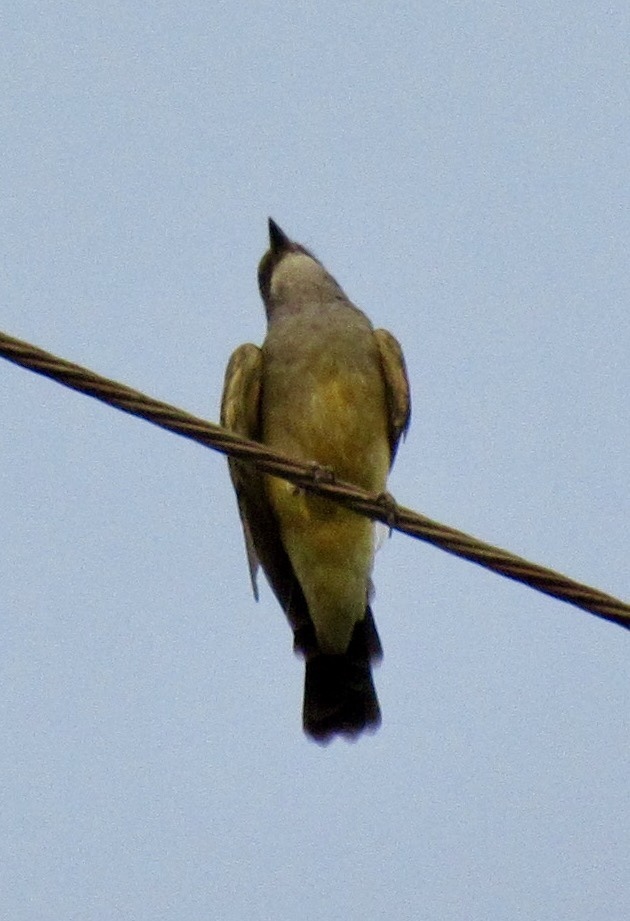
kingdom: Animalia
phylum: Chordata
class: Aves
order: Passeriformes
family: Tyrannidae
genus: Tyrannus
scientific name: Tyrannus vociferans
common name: Cassin's kingbird
